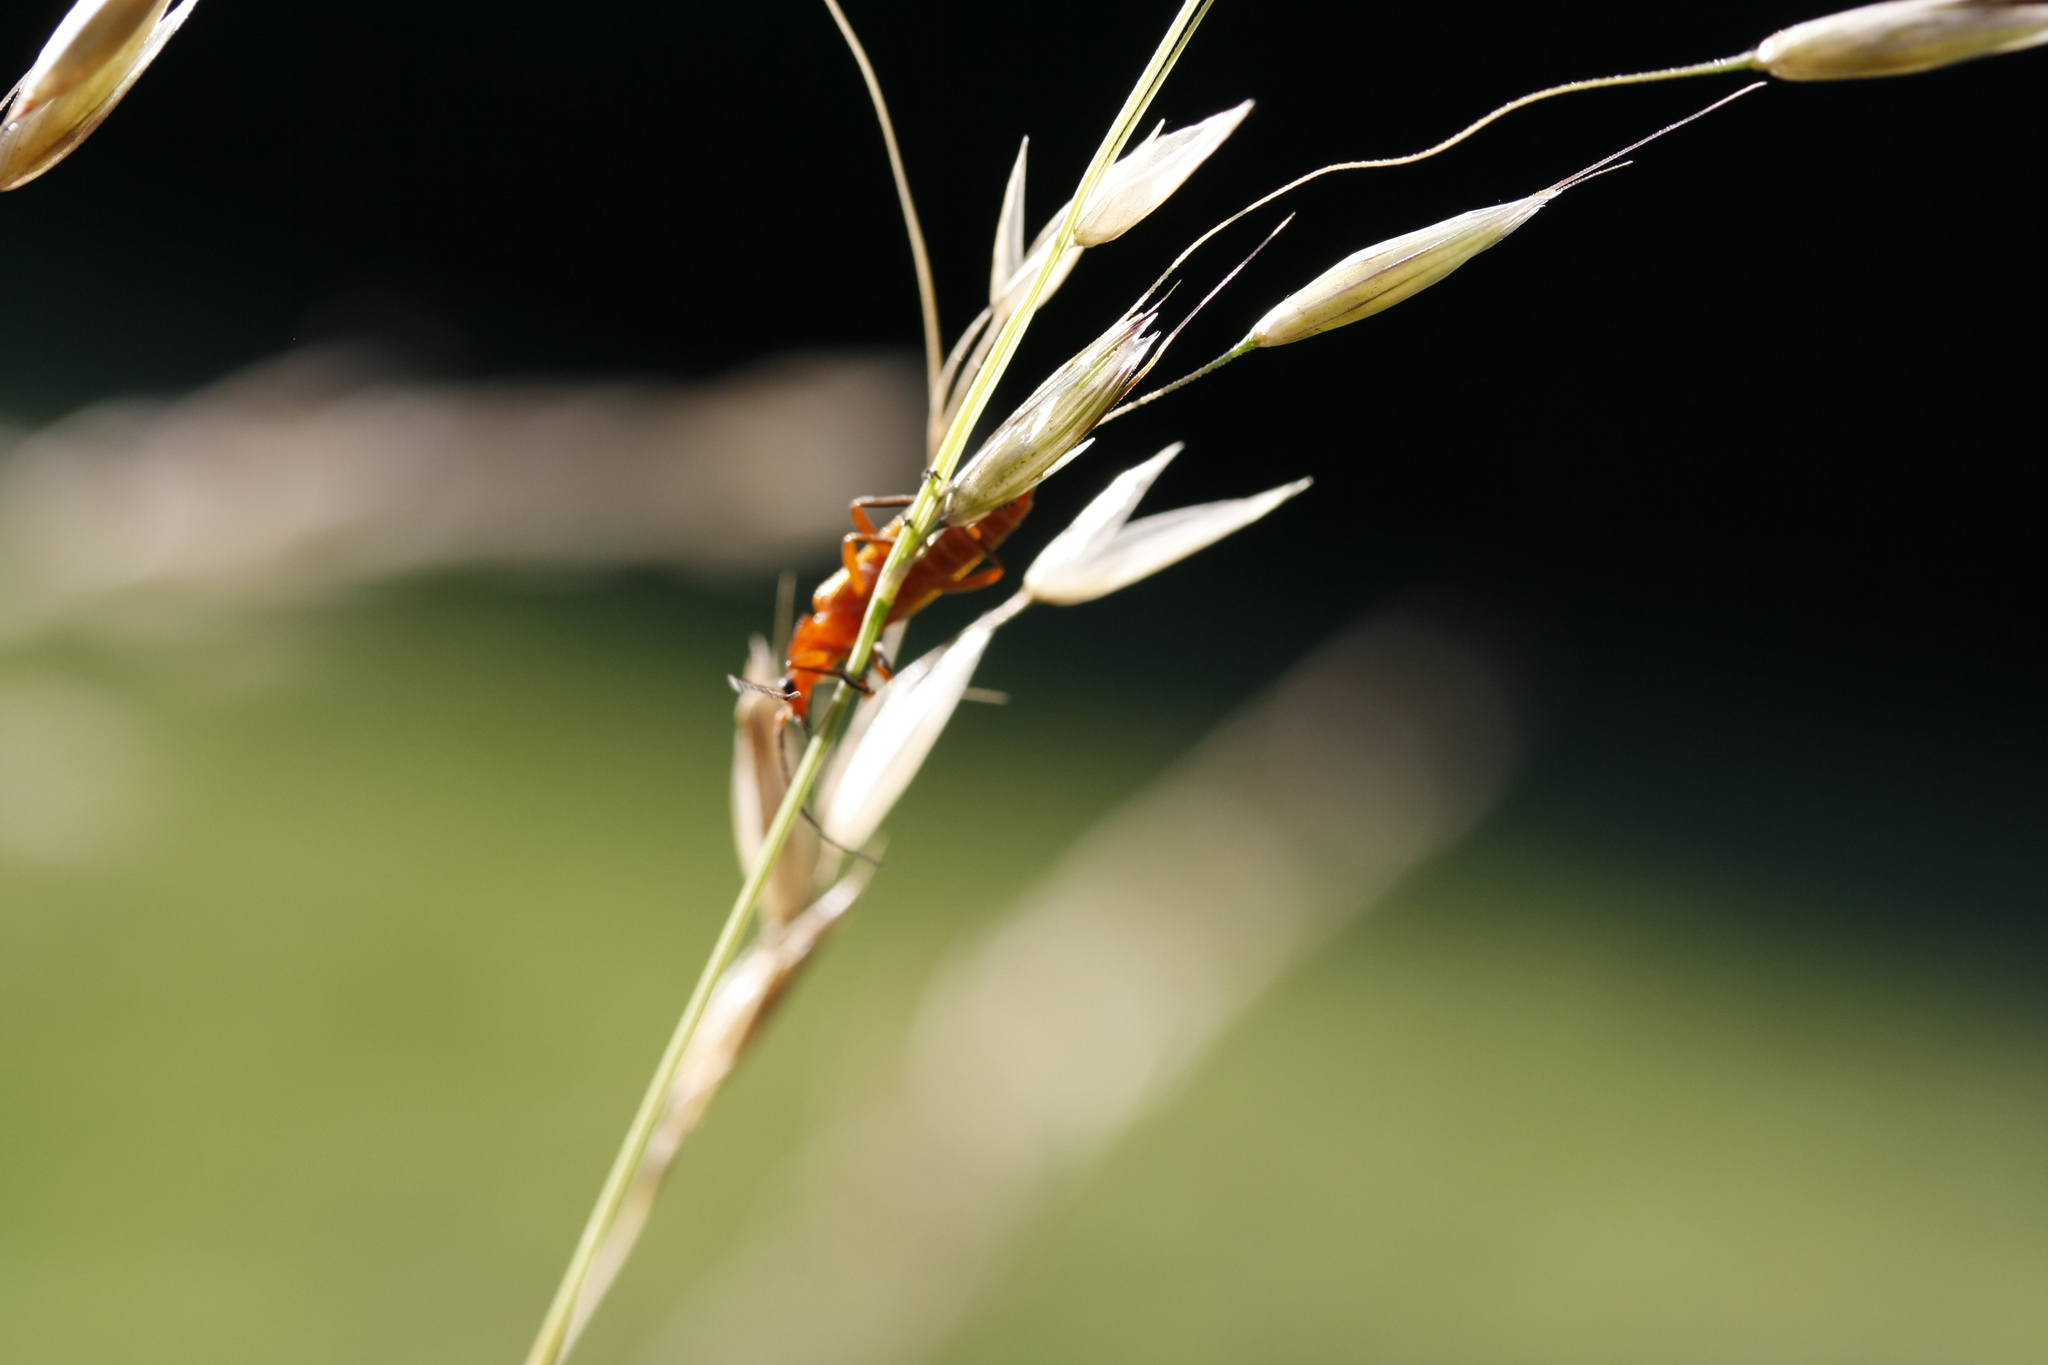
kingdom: Animalia
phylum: Arthropoda
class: Insecta
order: Coleoptera
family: Cantharidae
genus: Rhagonycha
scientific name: Rhagonycha fulva
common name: Common red soldier beetle
